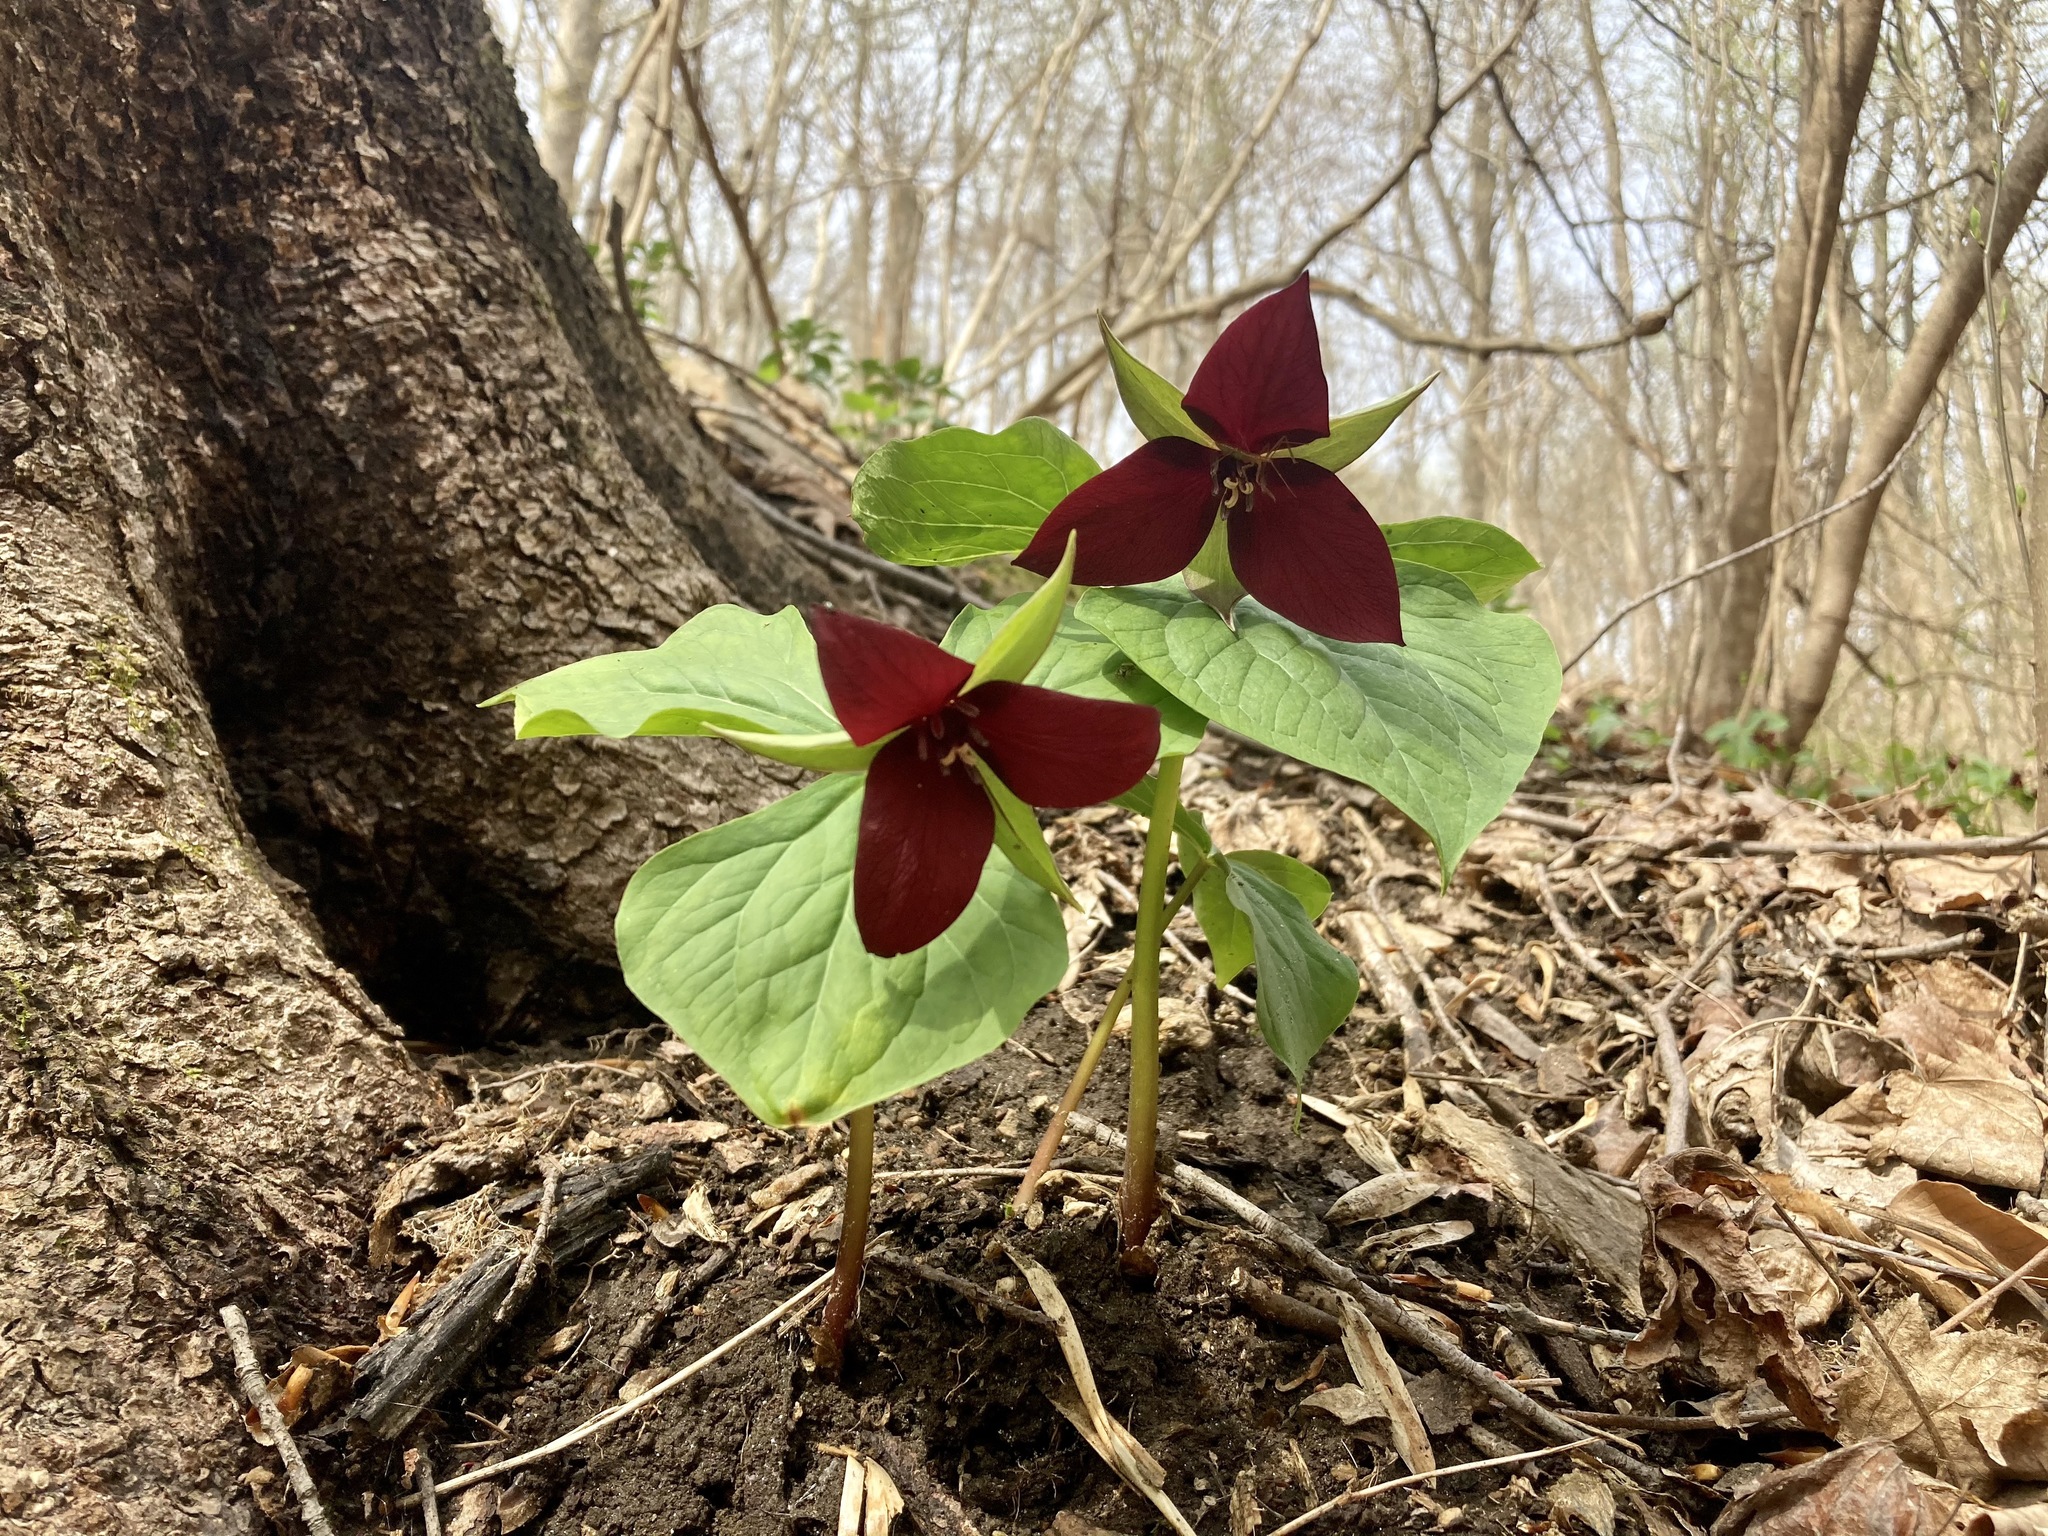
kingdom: Plantae
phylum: Tracheophyta
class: Liliopsida
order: Liliales
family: Melanthiaceae
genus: Trillium
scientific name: Trillium erectum
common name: Purple trillium
